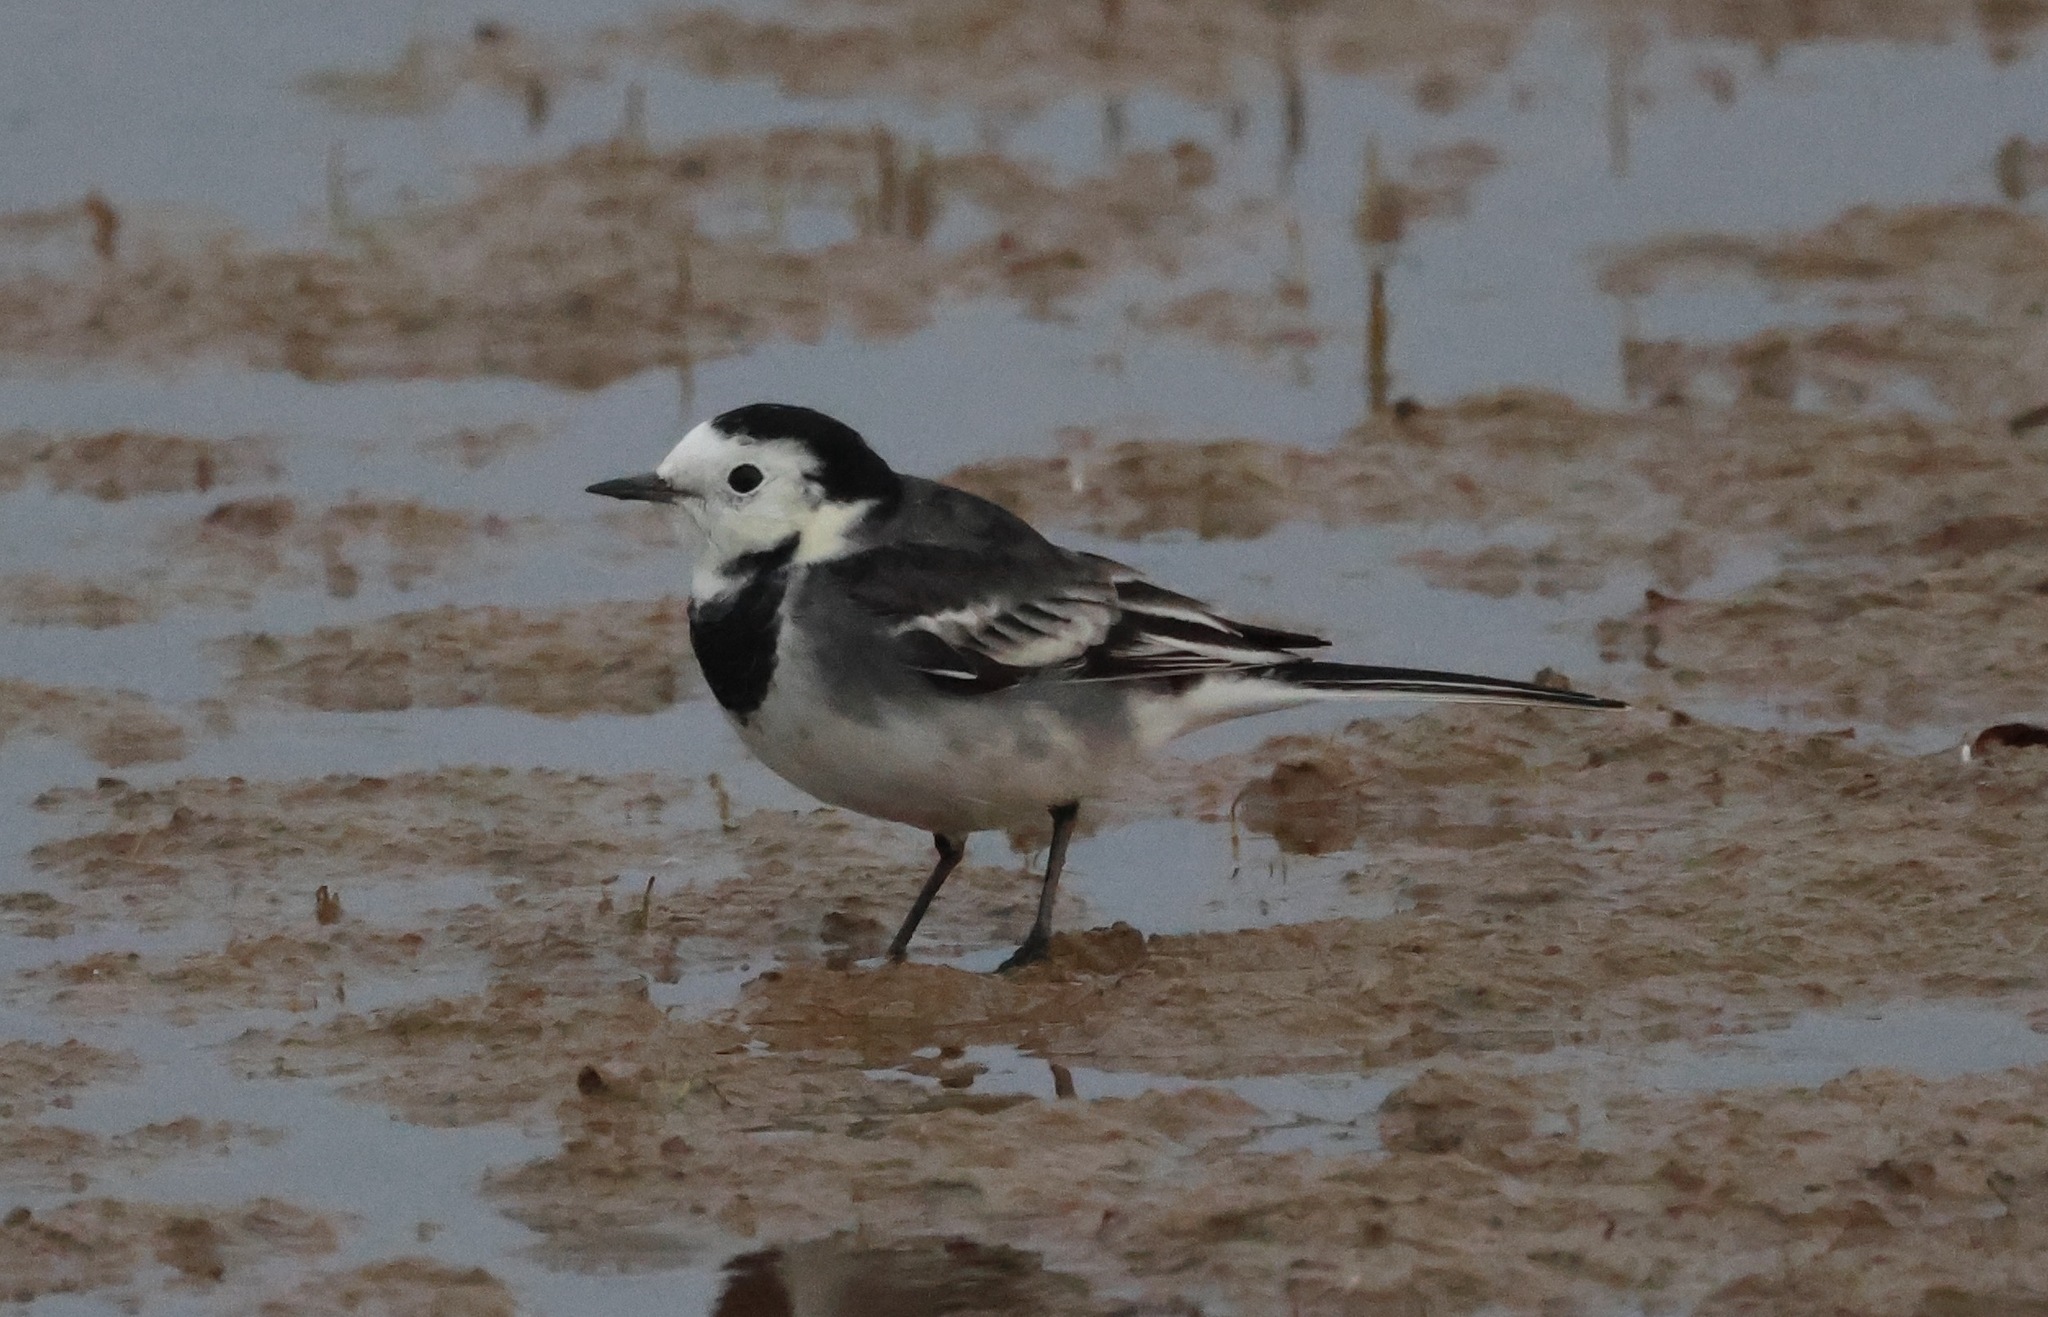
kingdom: Animalia
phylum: Chordata
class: Aves
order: Passeriformes
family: Motacillidae
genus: Motacilla
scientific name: Motacilla alba
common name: White wagtail
